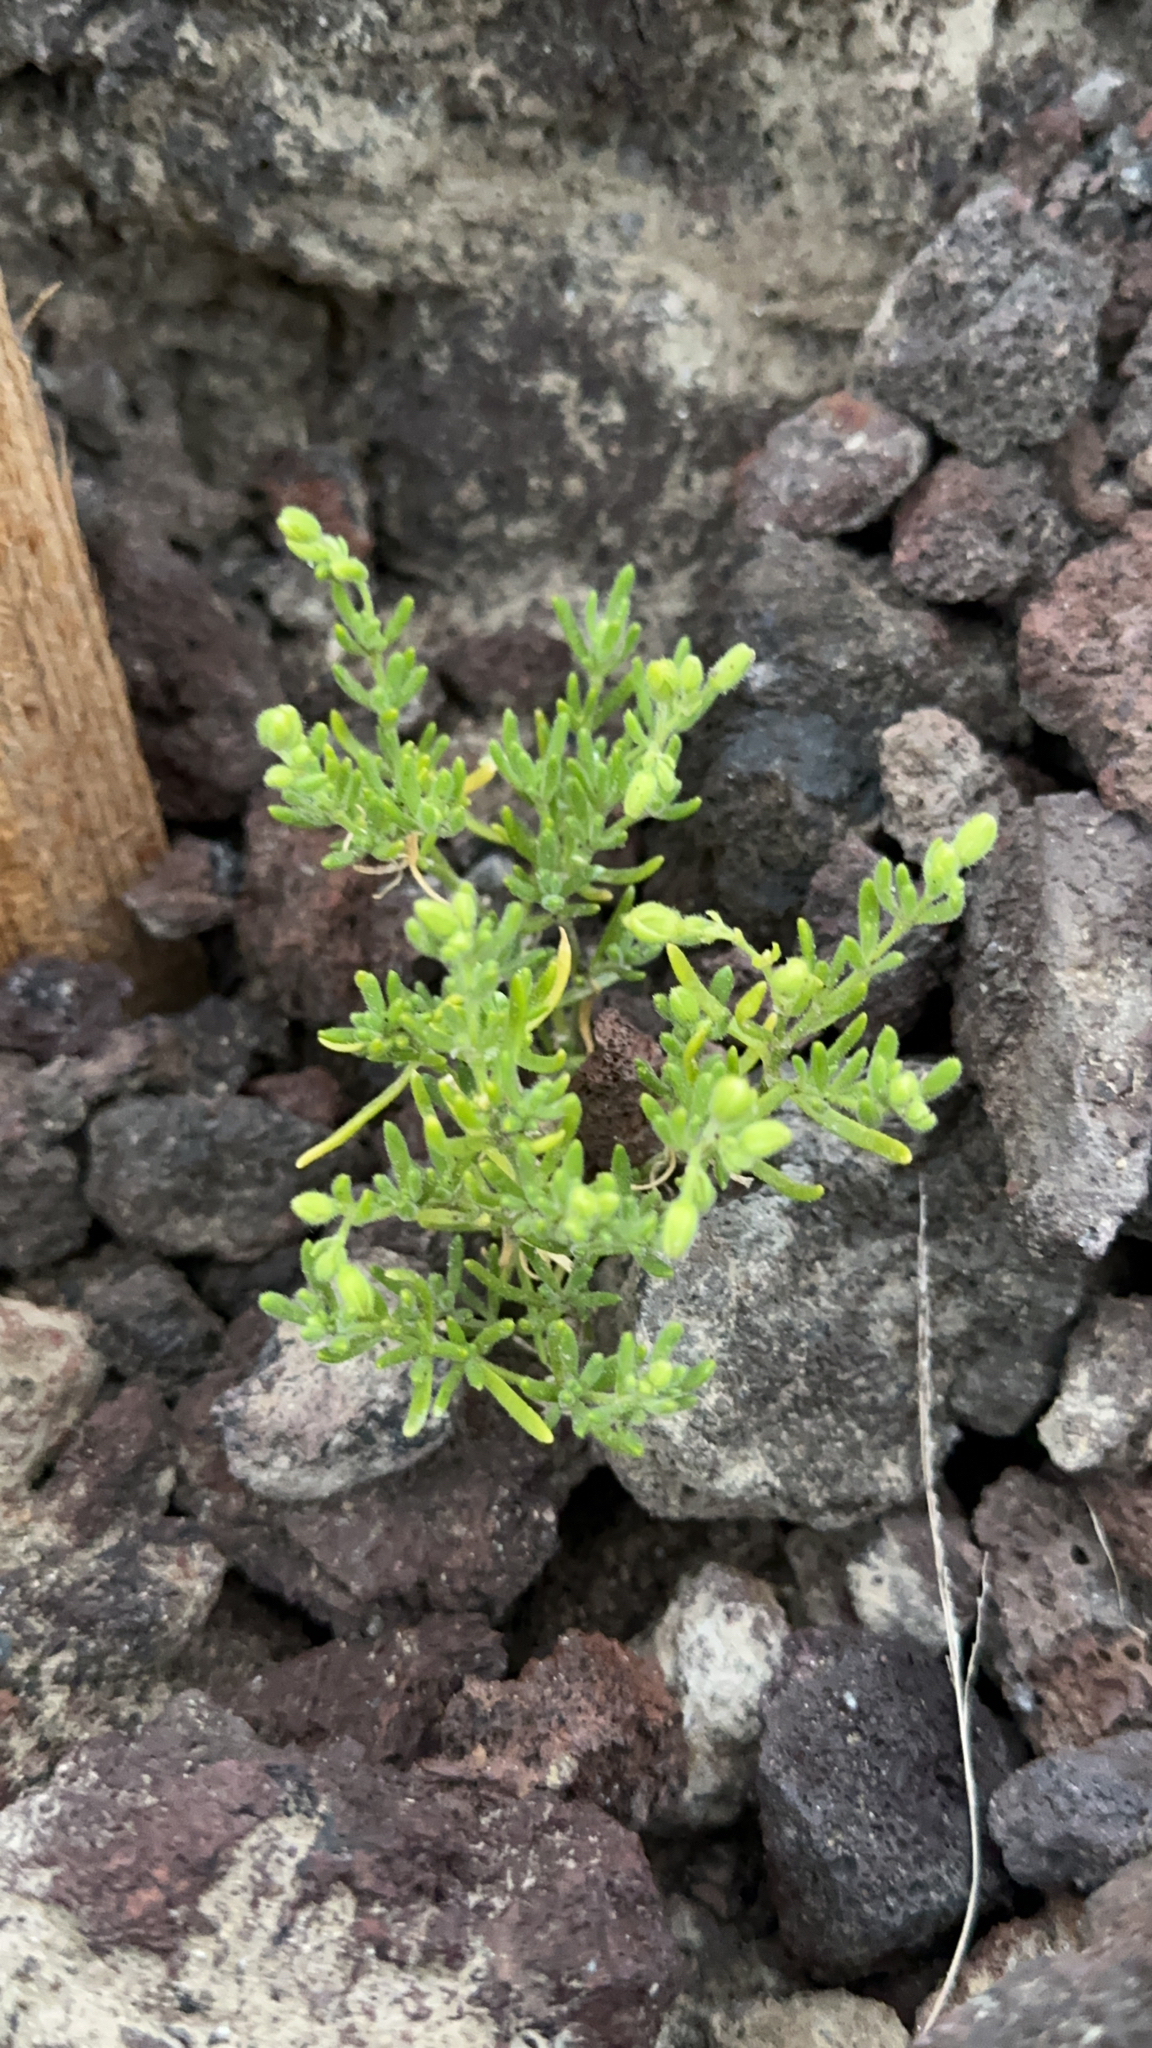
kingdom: Plantae
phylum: Tracheophyta
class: Magnoliopsida
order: Caryophyllales
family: Caryophyllaceae
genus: Spergularia
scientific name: Spergularia azorica
